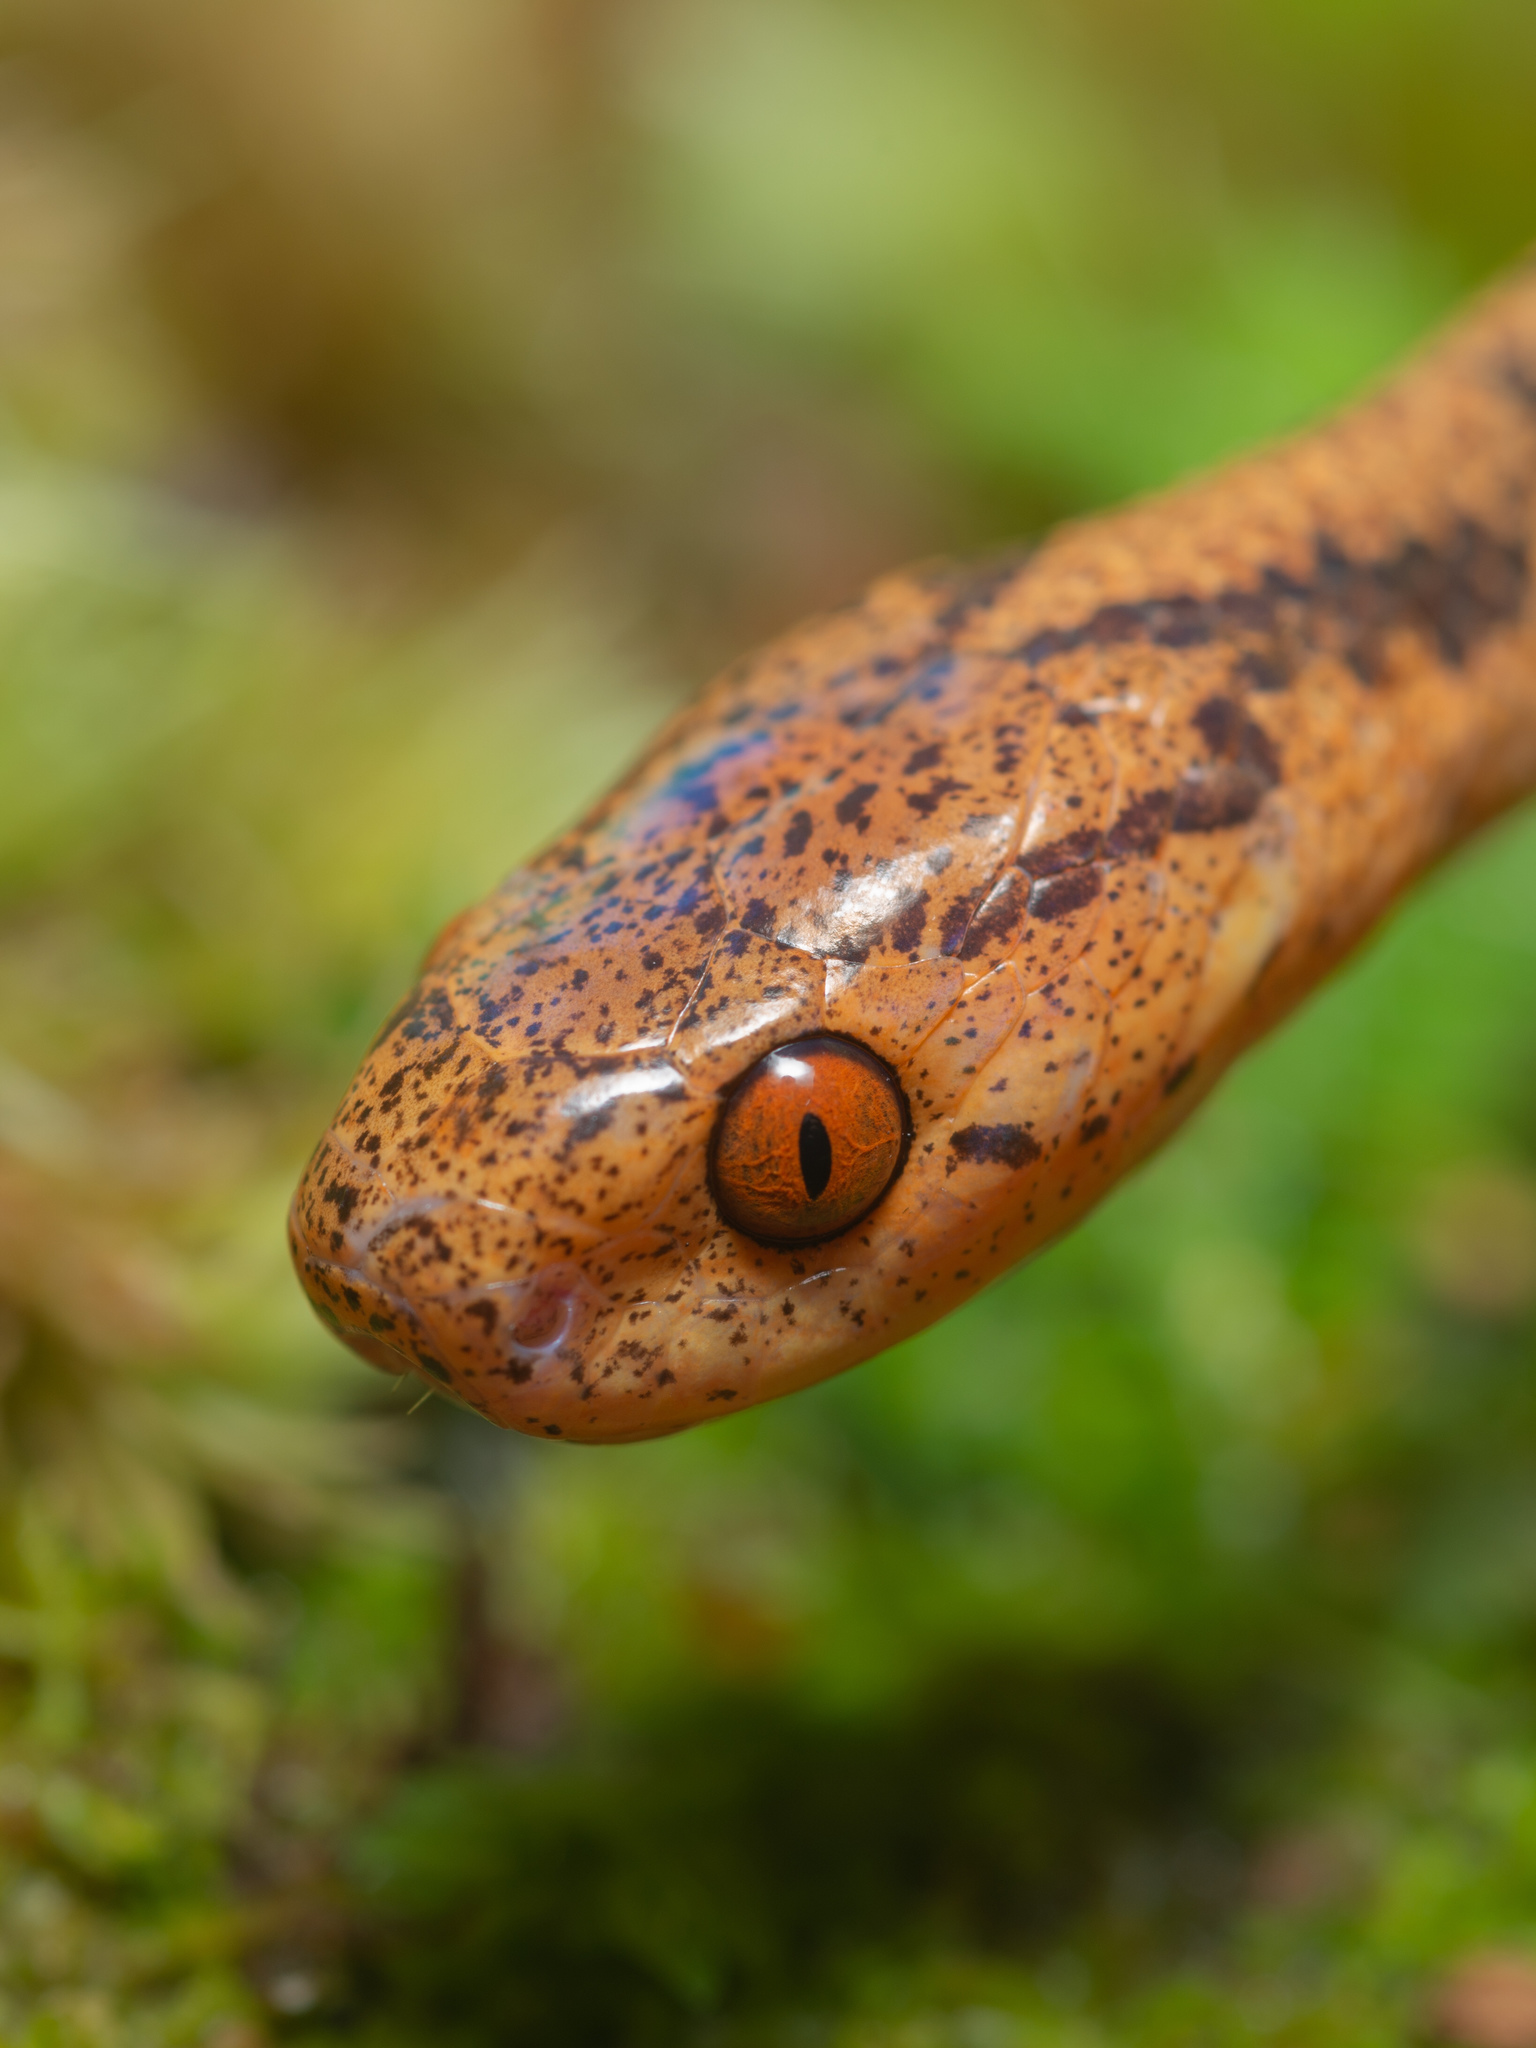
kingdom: Animalia
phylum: Chordata
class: Squamata
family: Pareidae
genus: Pareas
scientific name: Pareas chinensis
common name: Chinese slug snake
